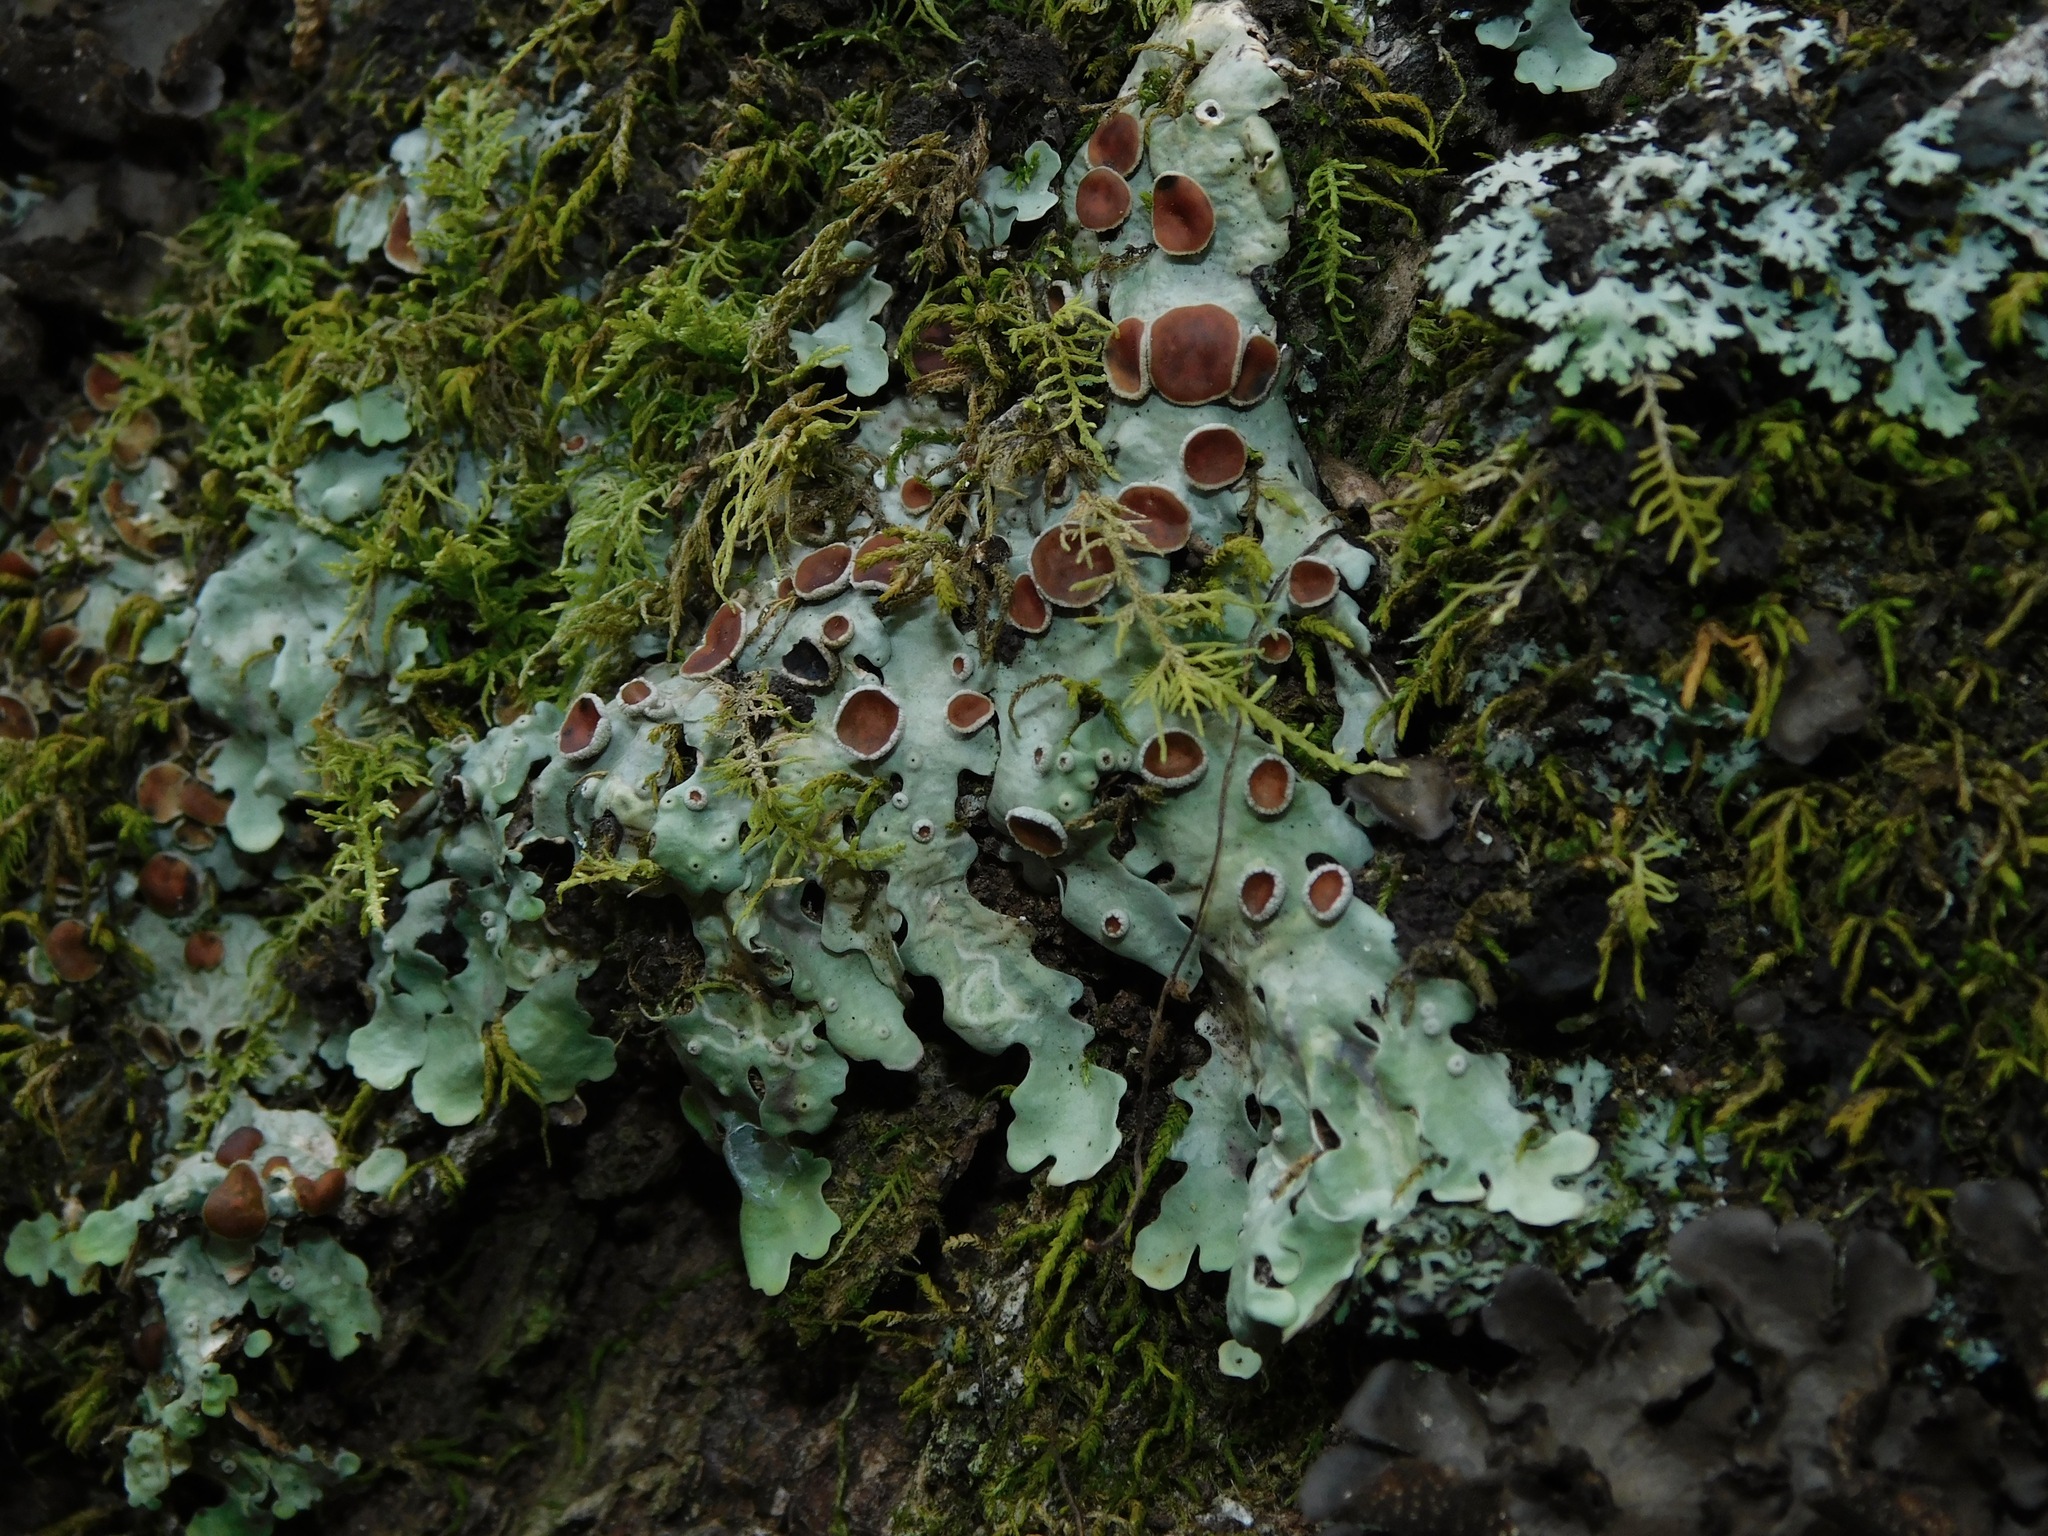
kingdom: Fungi
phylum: Ascomycota
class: Lecanoromycetes
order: Peltigerales
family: Lobariaceae
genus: Ricasolia
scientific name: Ricasolia quercizans
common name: Smooth lungwort
